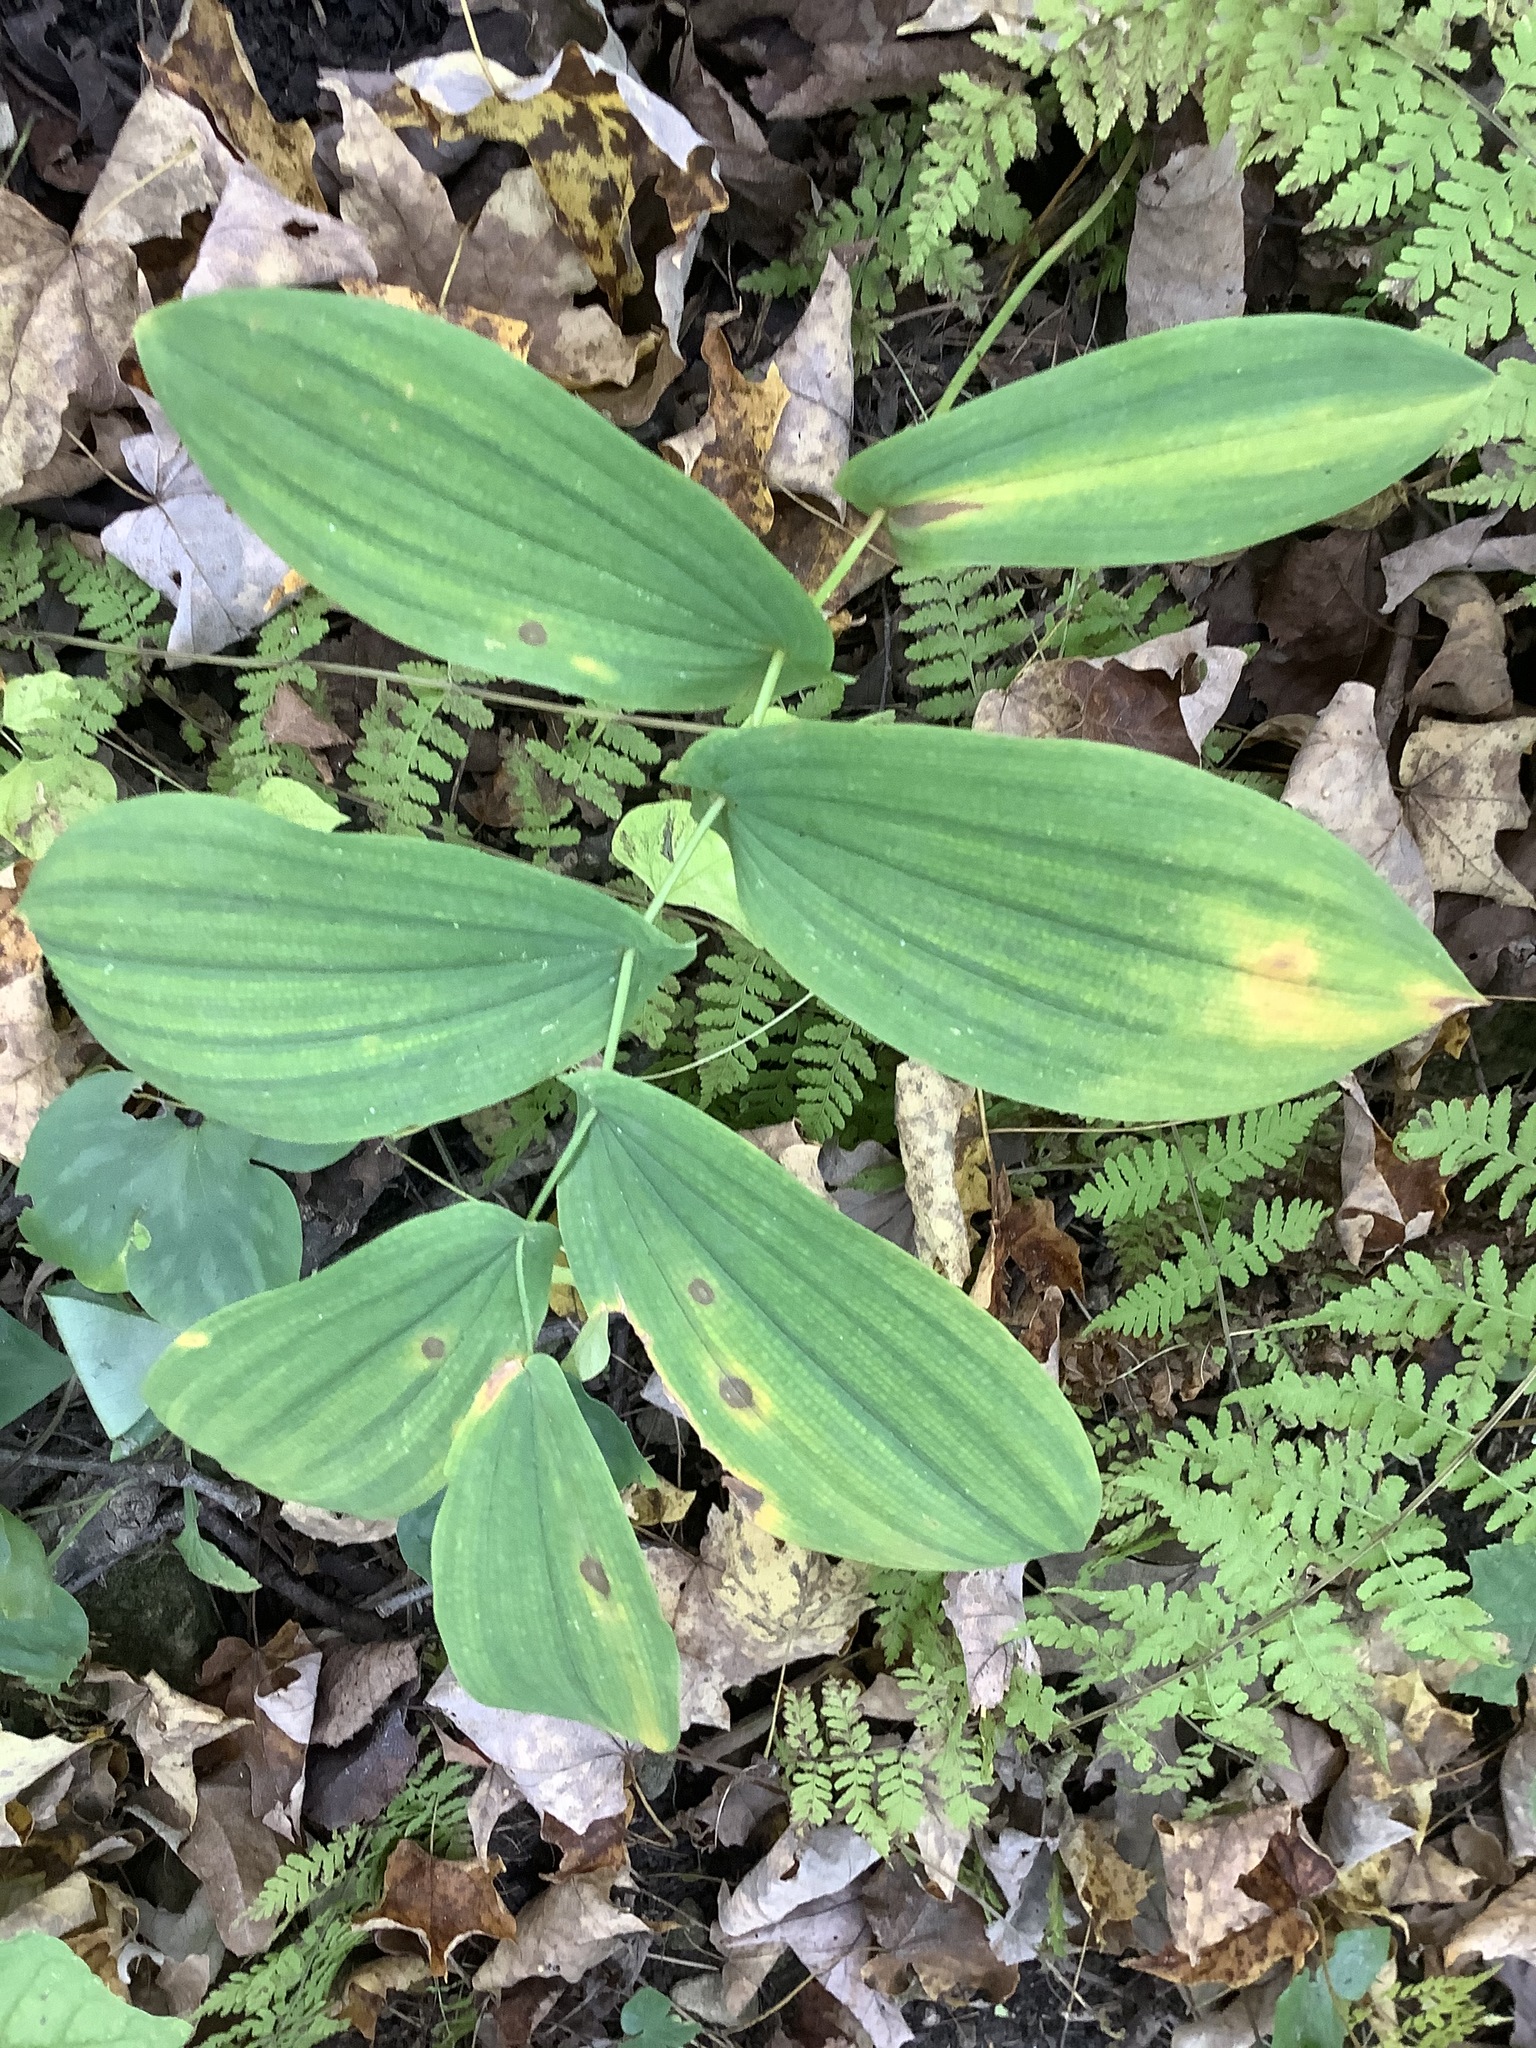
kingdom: Plantae
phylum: Tracheophyta
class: Liliopsida
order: Liliales
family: Colchicaceae
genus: Uvularia
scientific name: Uvularia grandiflora
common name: Bellwort
